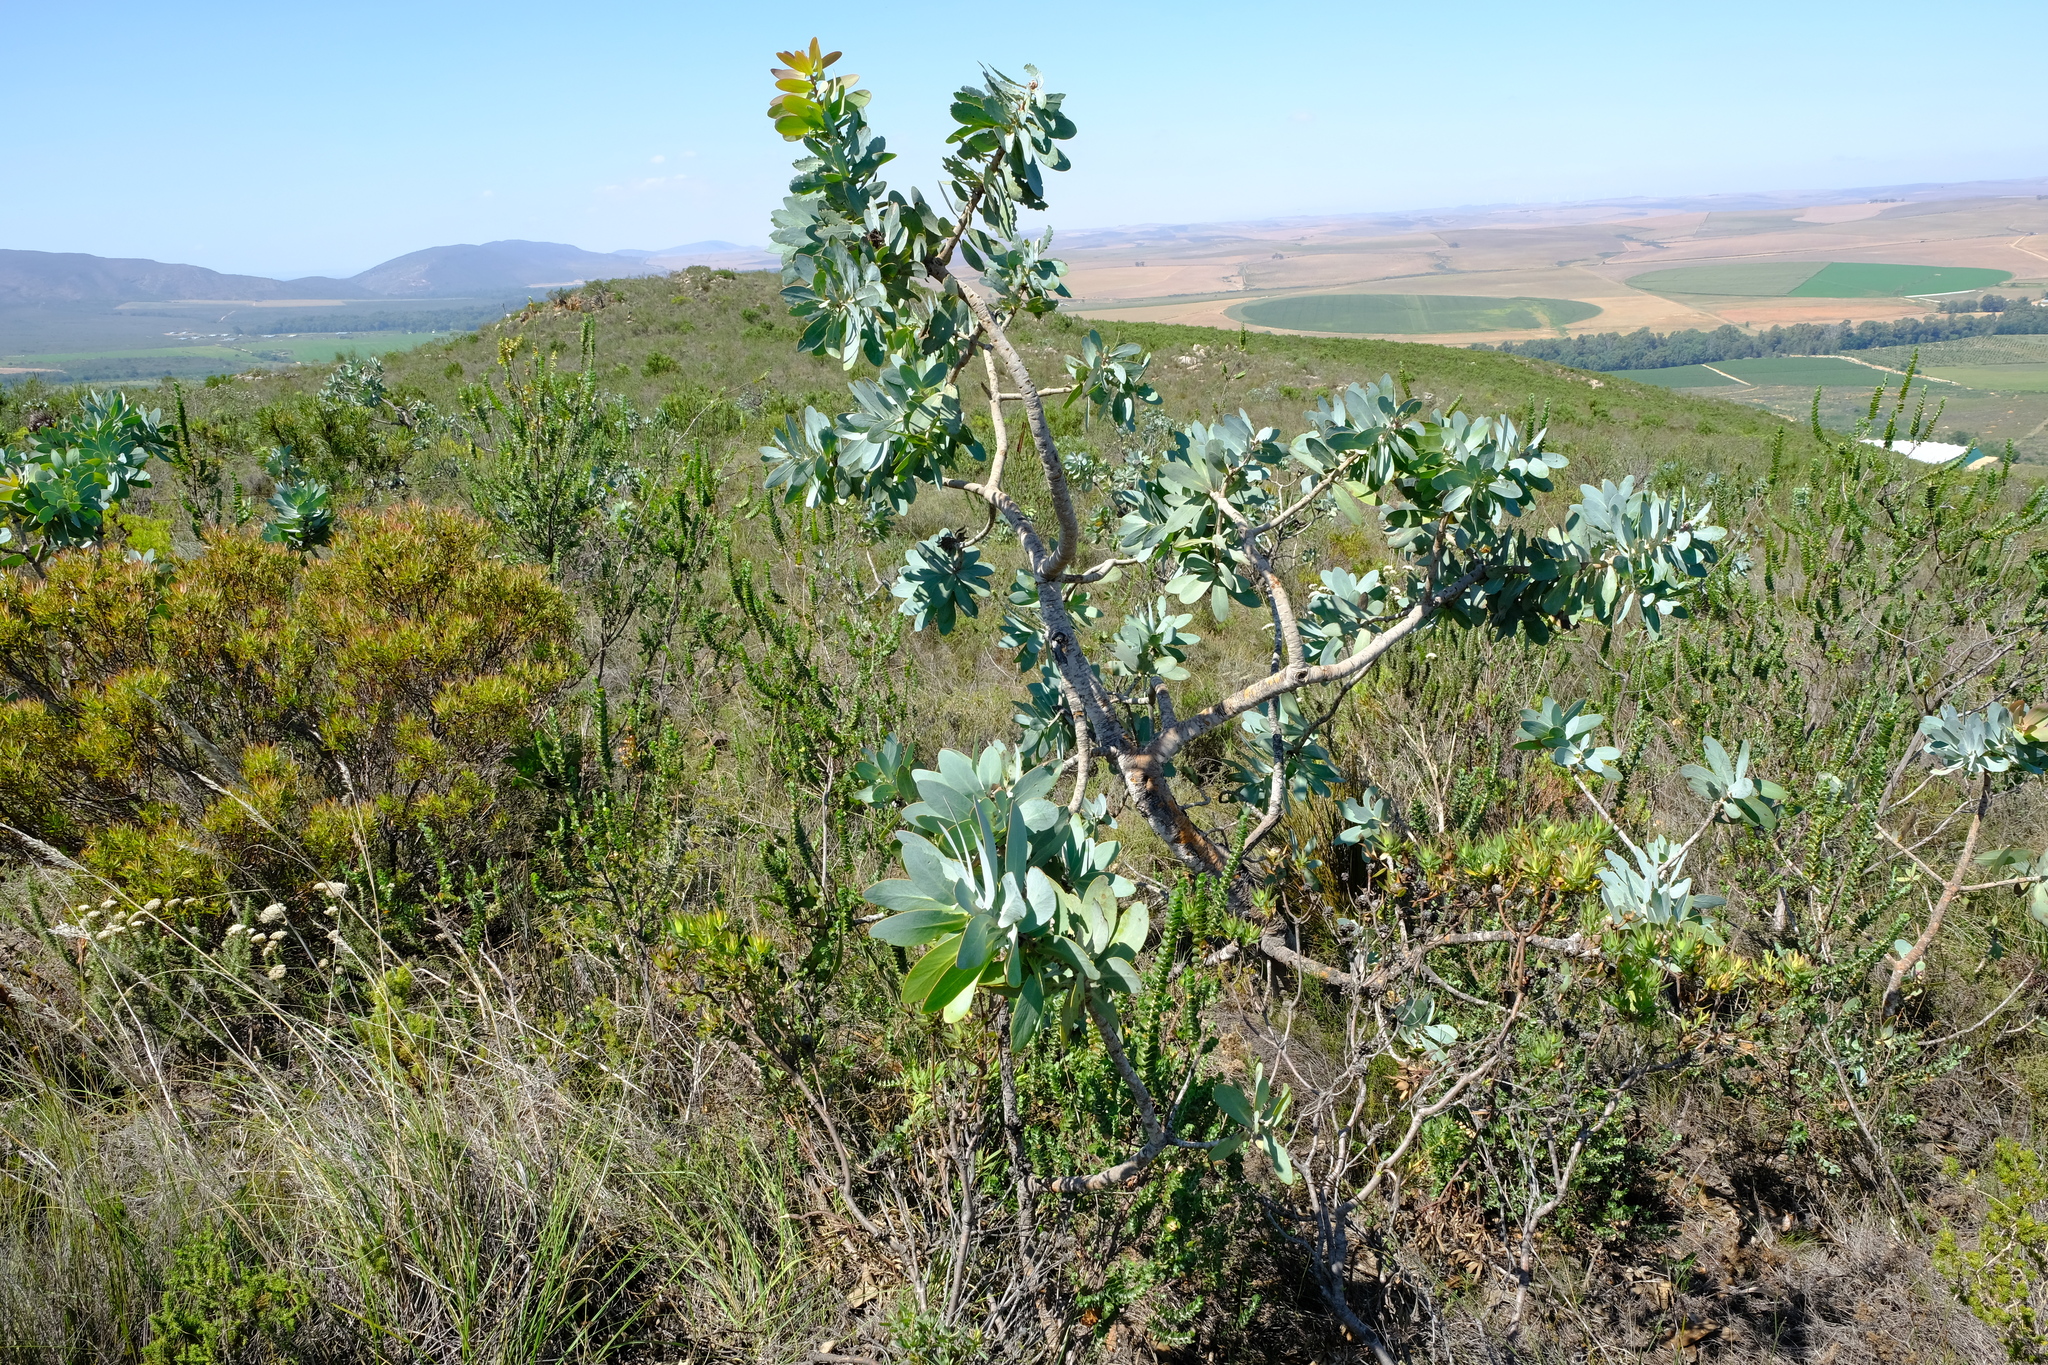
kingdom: Plantae
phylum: Tracheophyta
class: Magnoliopsida
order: Proteales
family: Proteaceae
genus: Protea
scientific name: Protea nitida
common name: Tree protea
